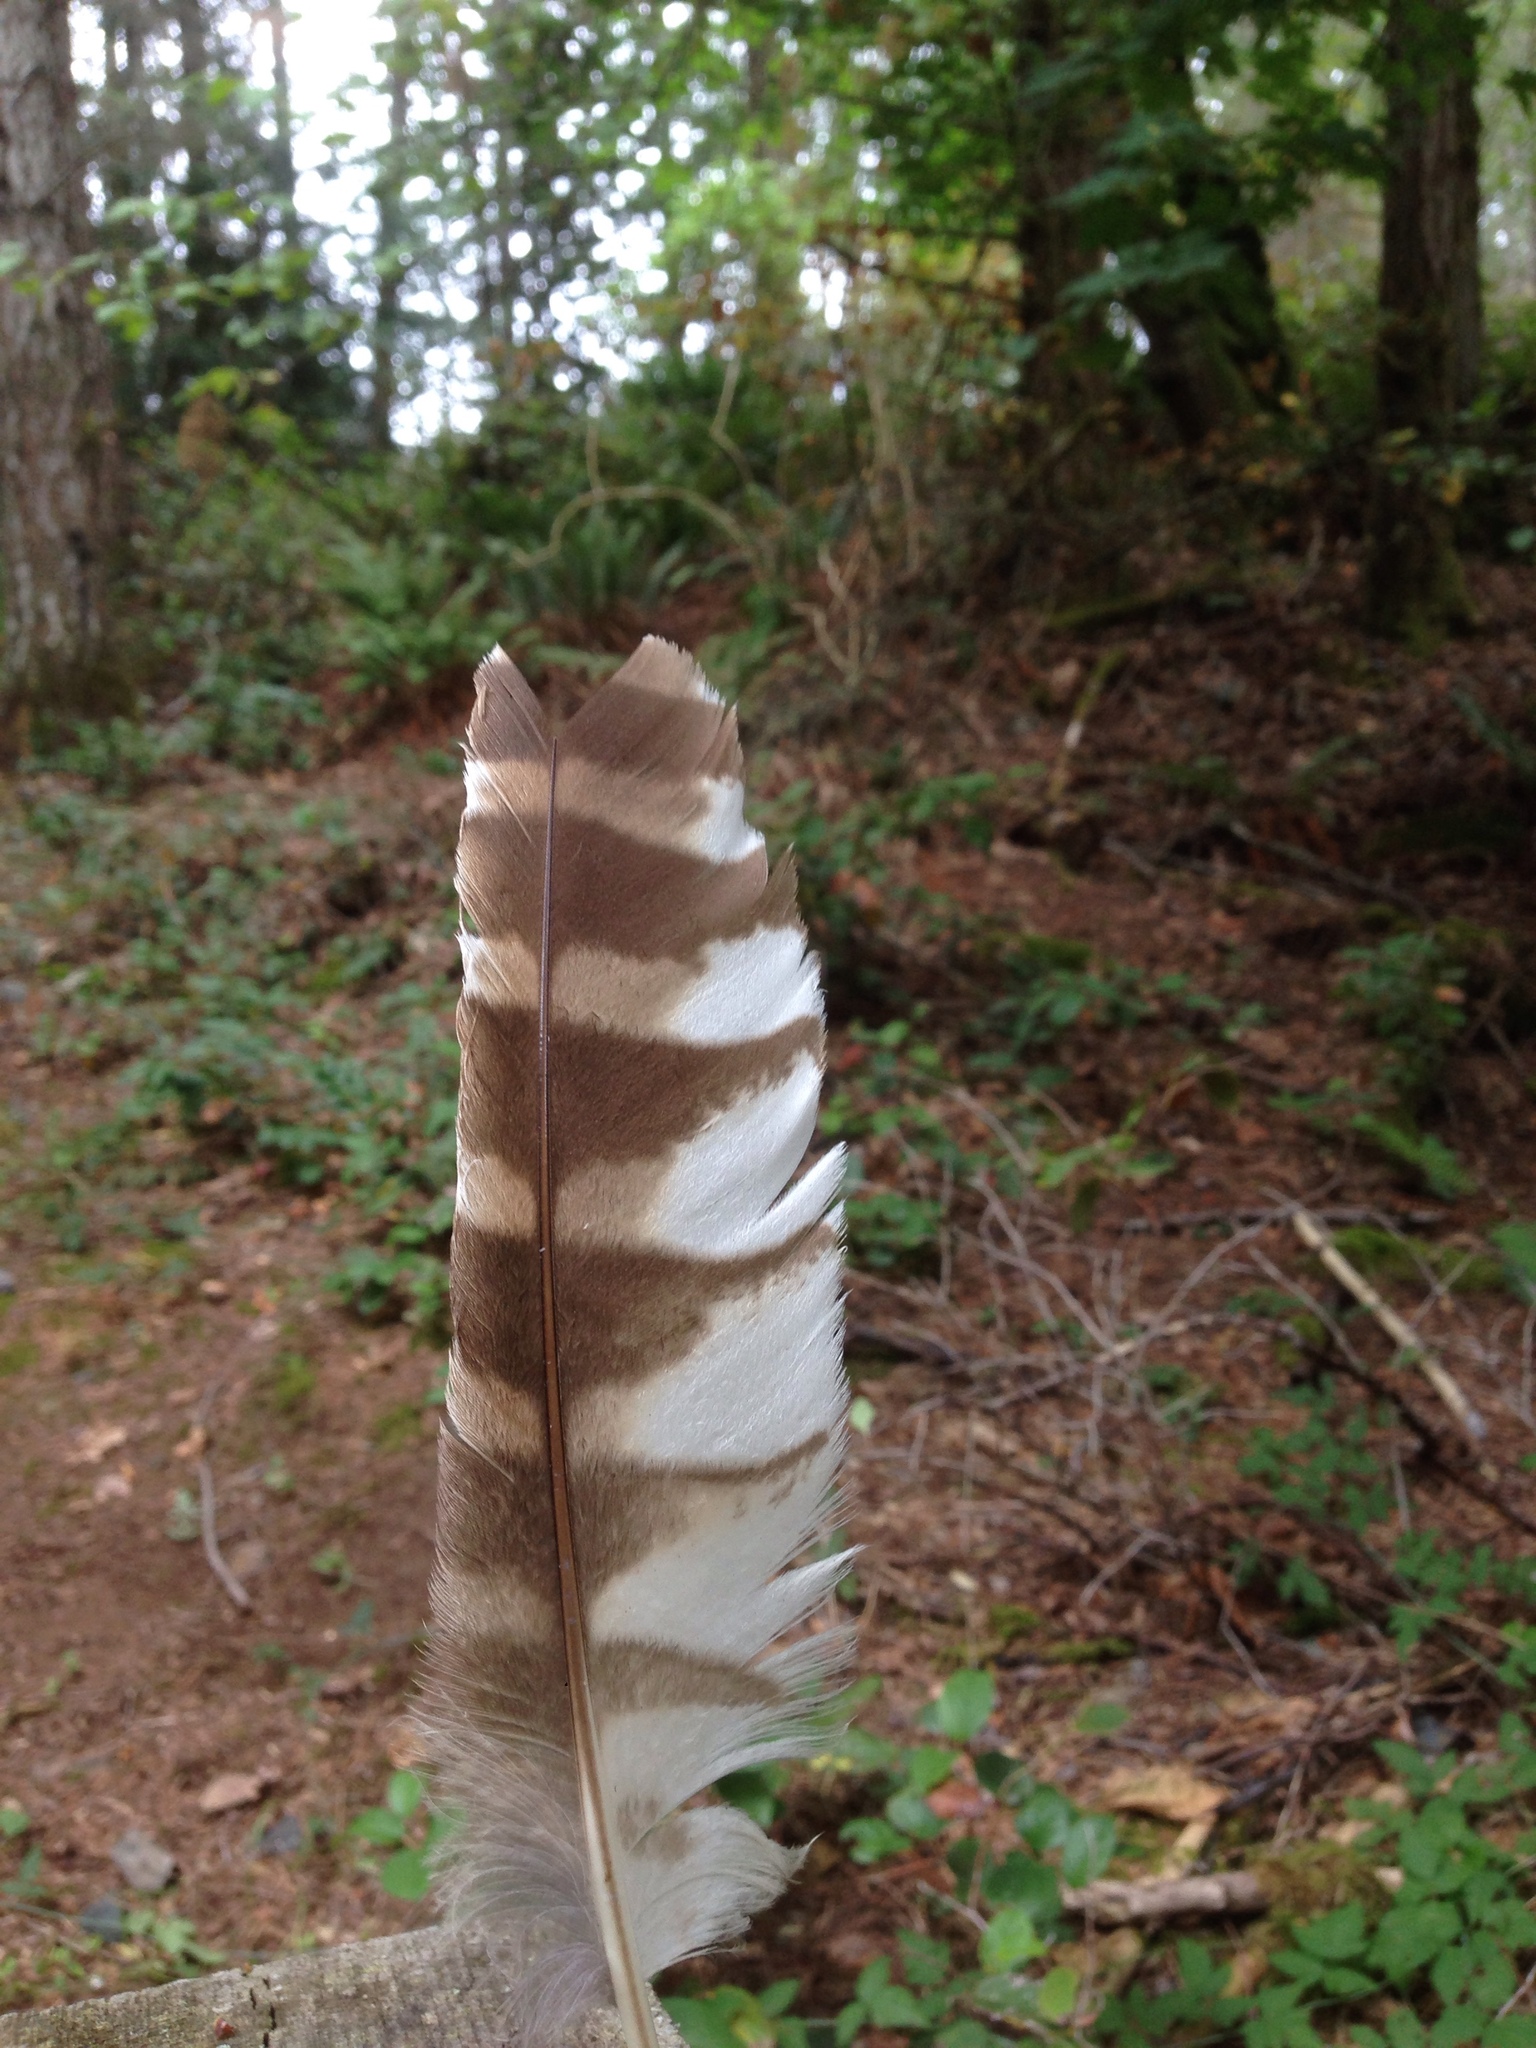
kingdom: Animalia
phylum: Chordata
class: Aves
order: Strigiformes
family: Strigidae
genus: Strix
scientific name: Strix varia
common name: Barred owl
